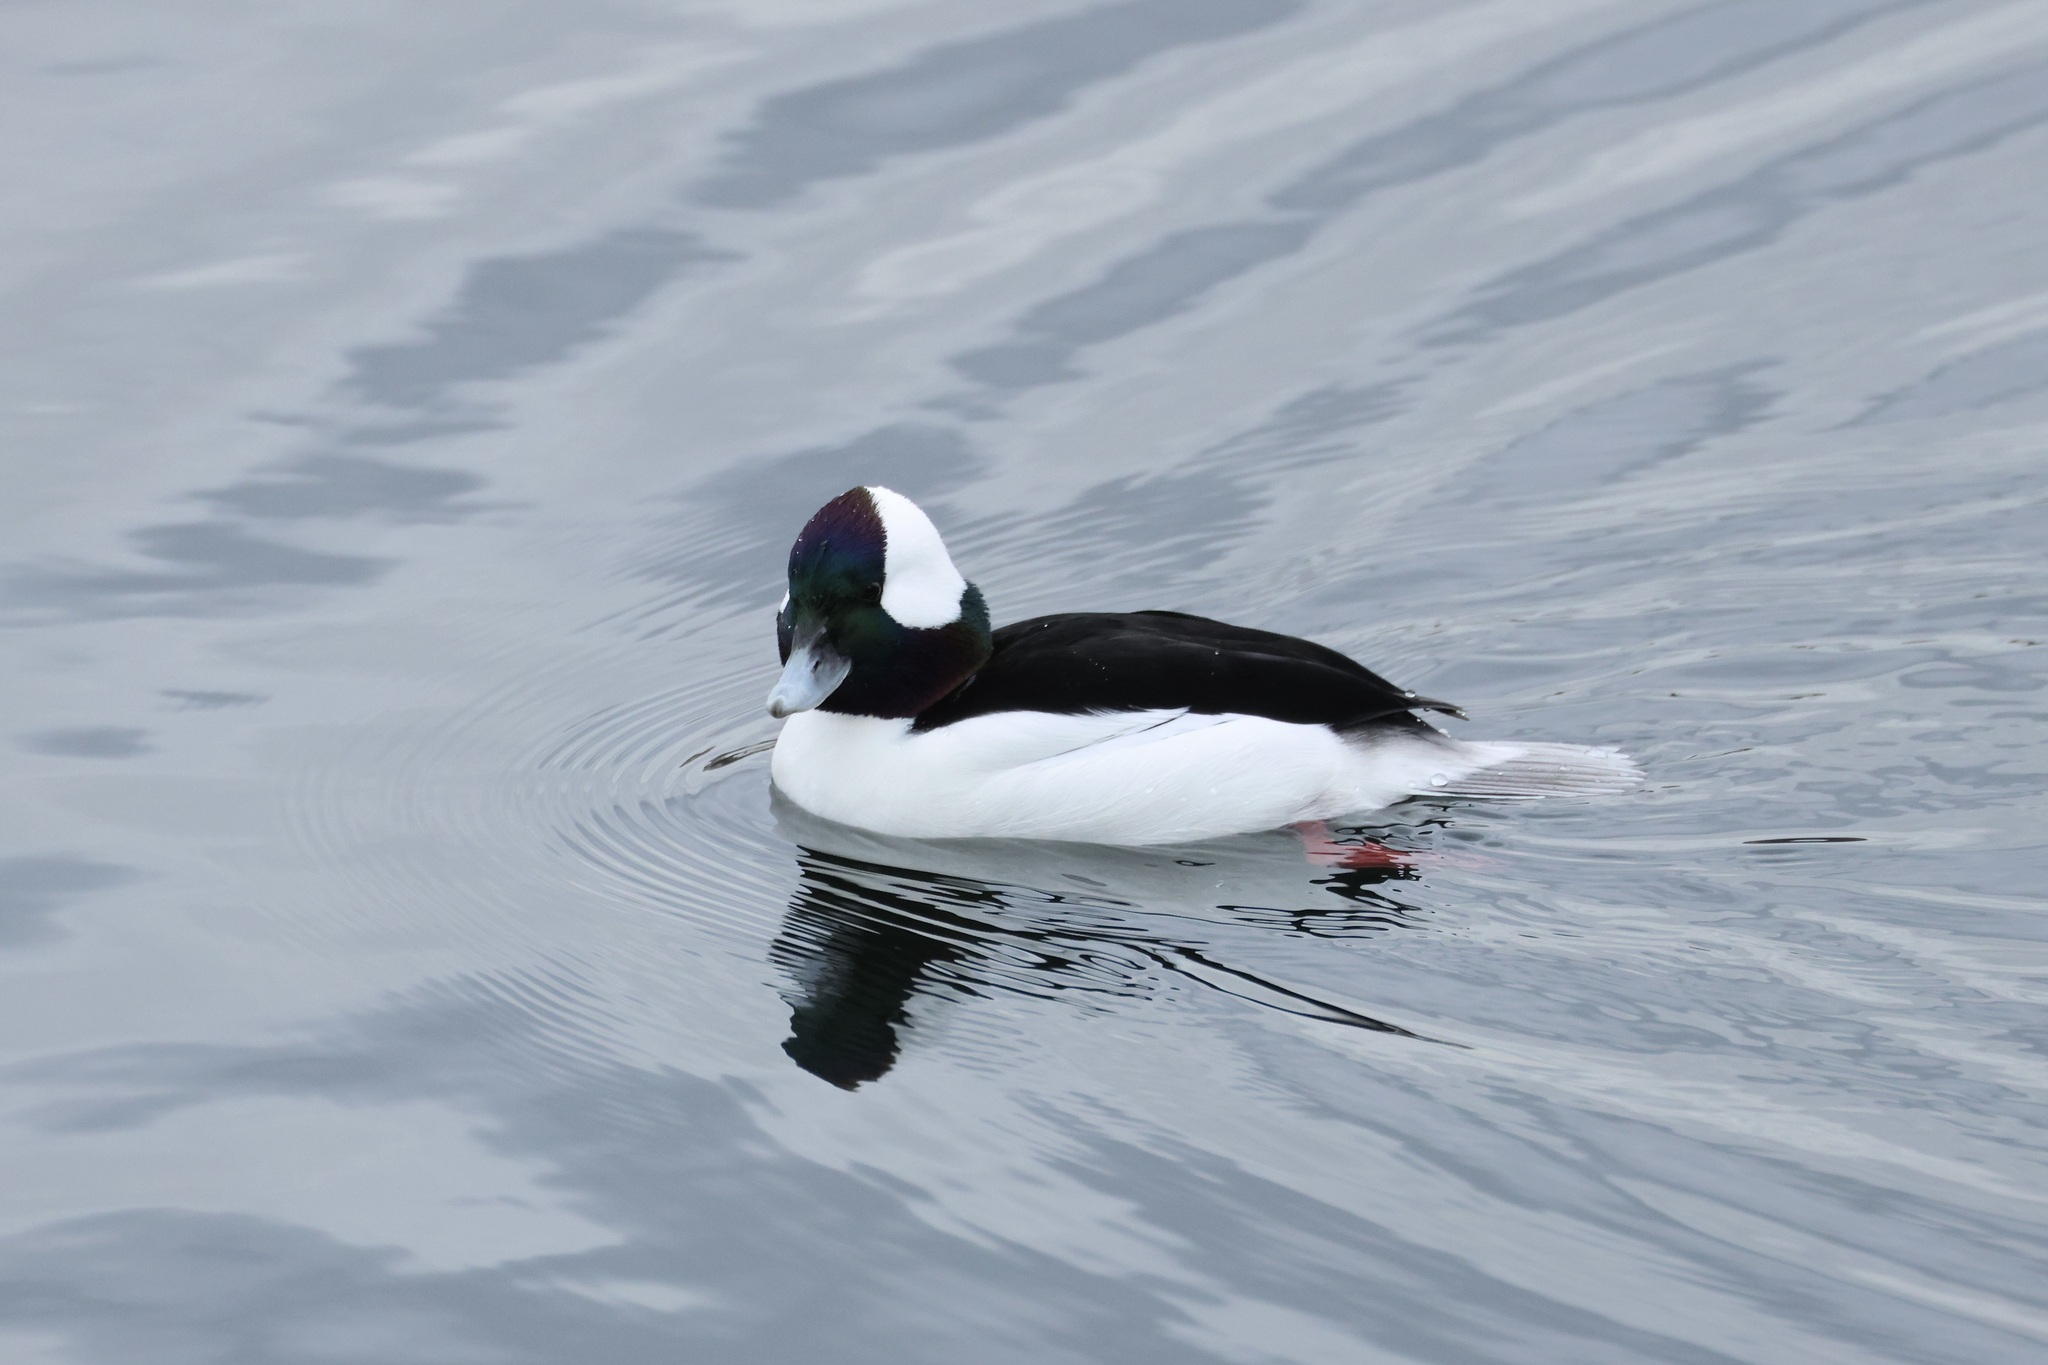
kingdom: Animalia
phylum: Chordata
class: Aves
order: Anseriformes
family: Anatidae
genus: Bucephala
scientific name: Bucephala albeola
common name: Bufflehead
